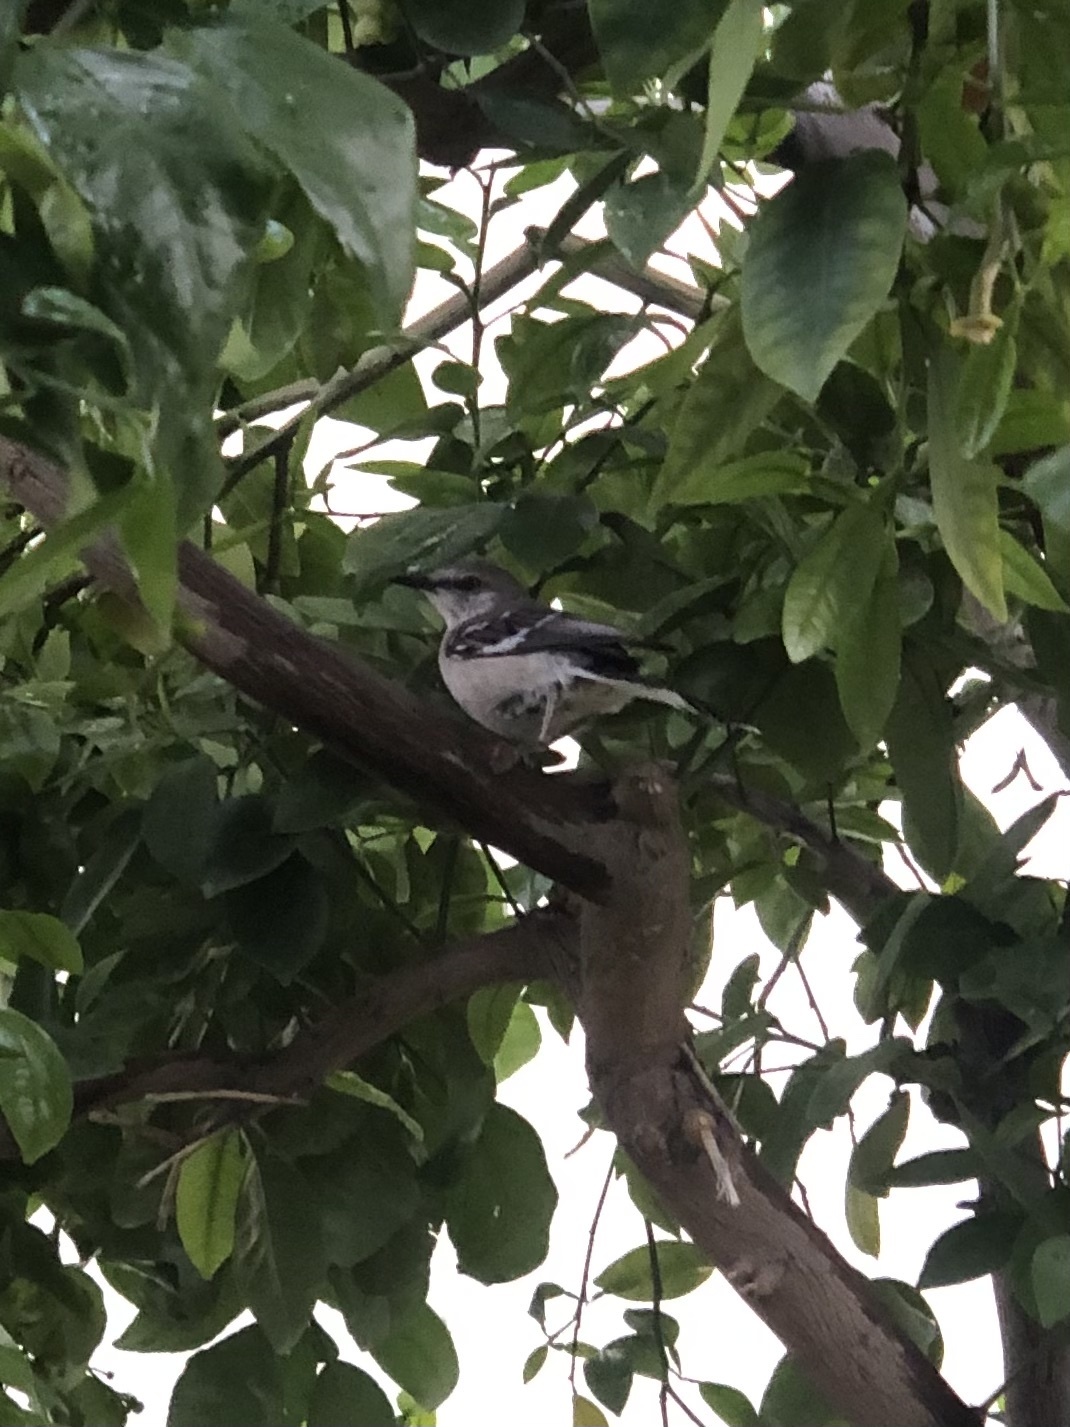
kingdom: Animalia
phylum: Chordata
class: Aves
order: Passeriformes
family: Mimidae
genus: Mimus
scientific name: Mimus polyglottos
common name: Northern mockingbird
